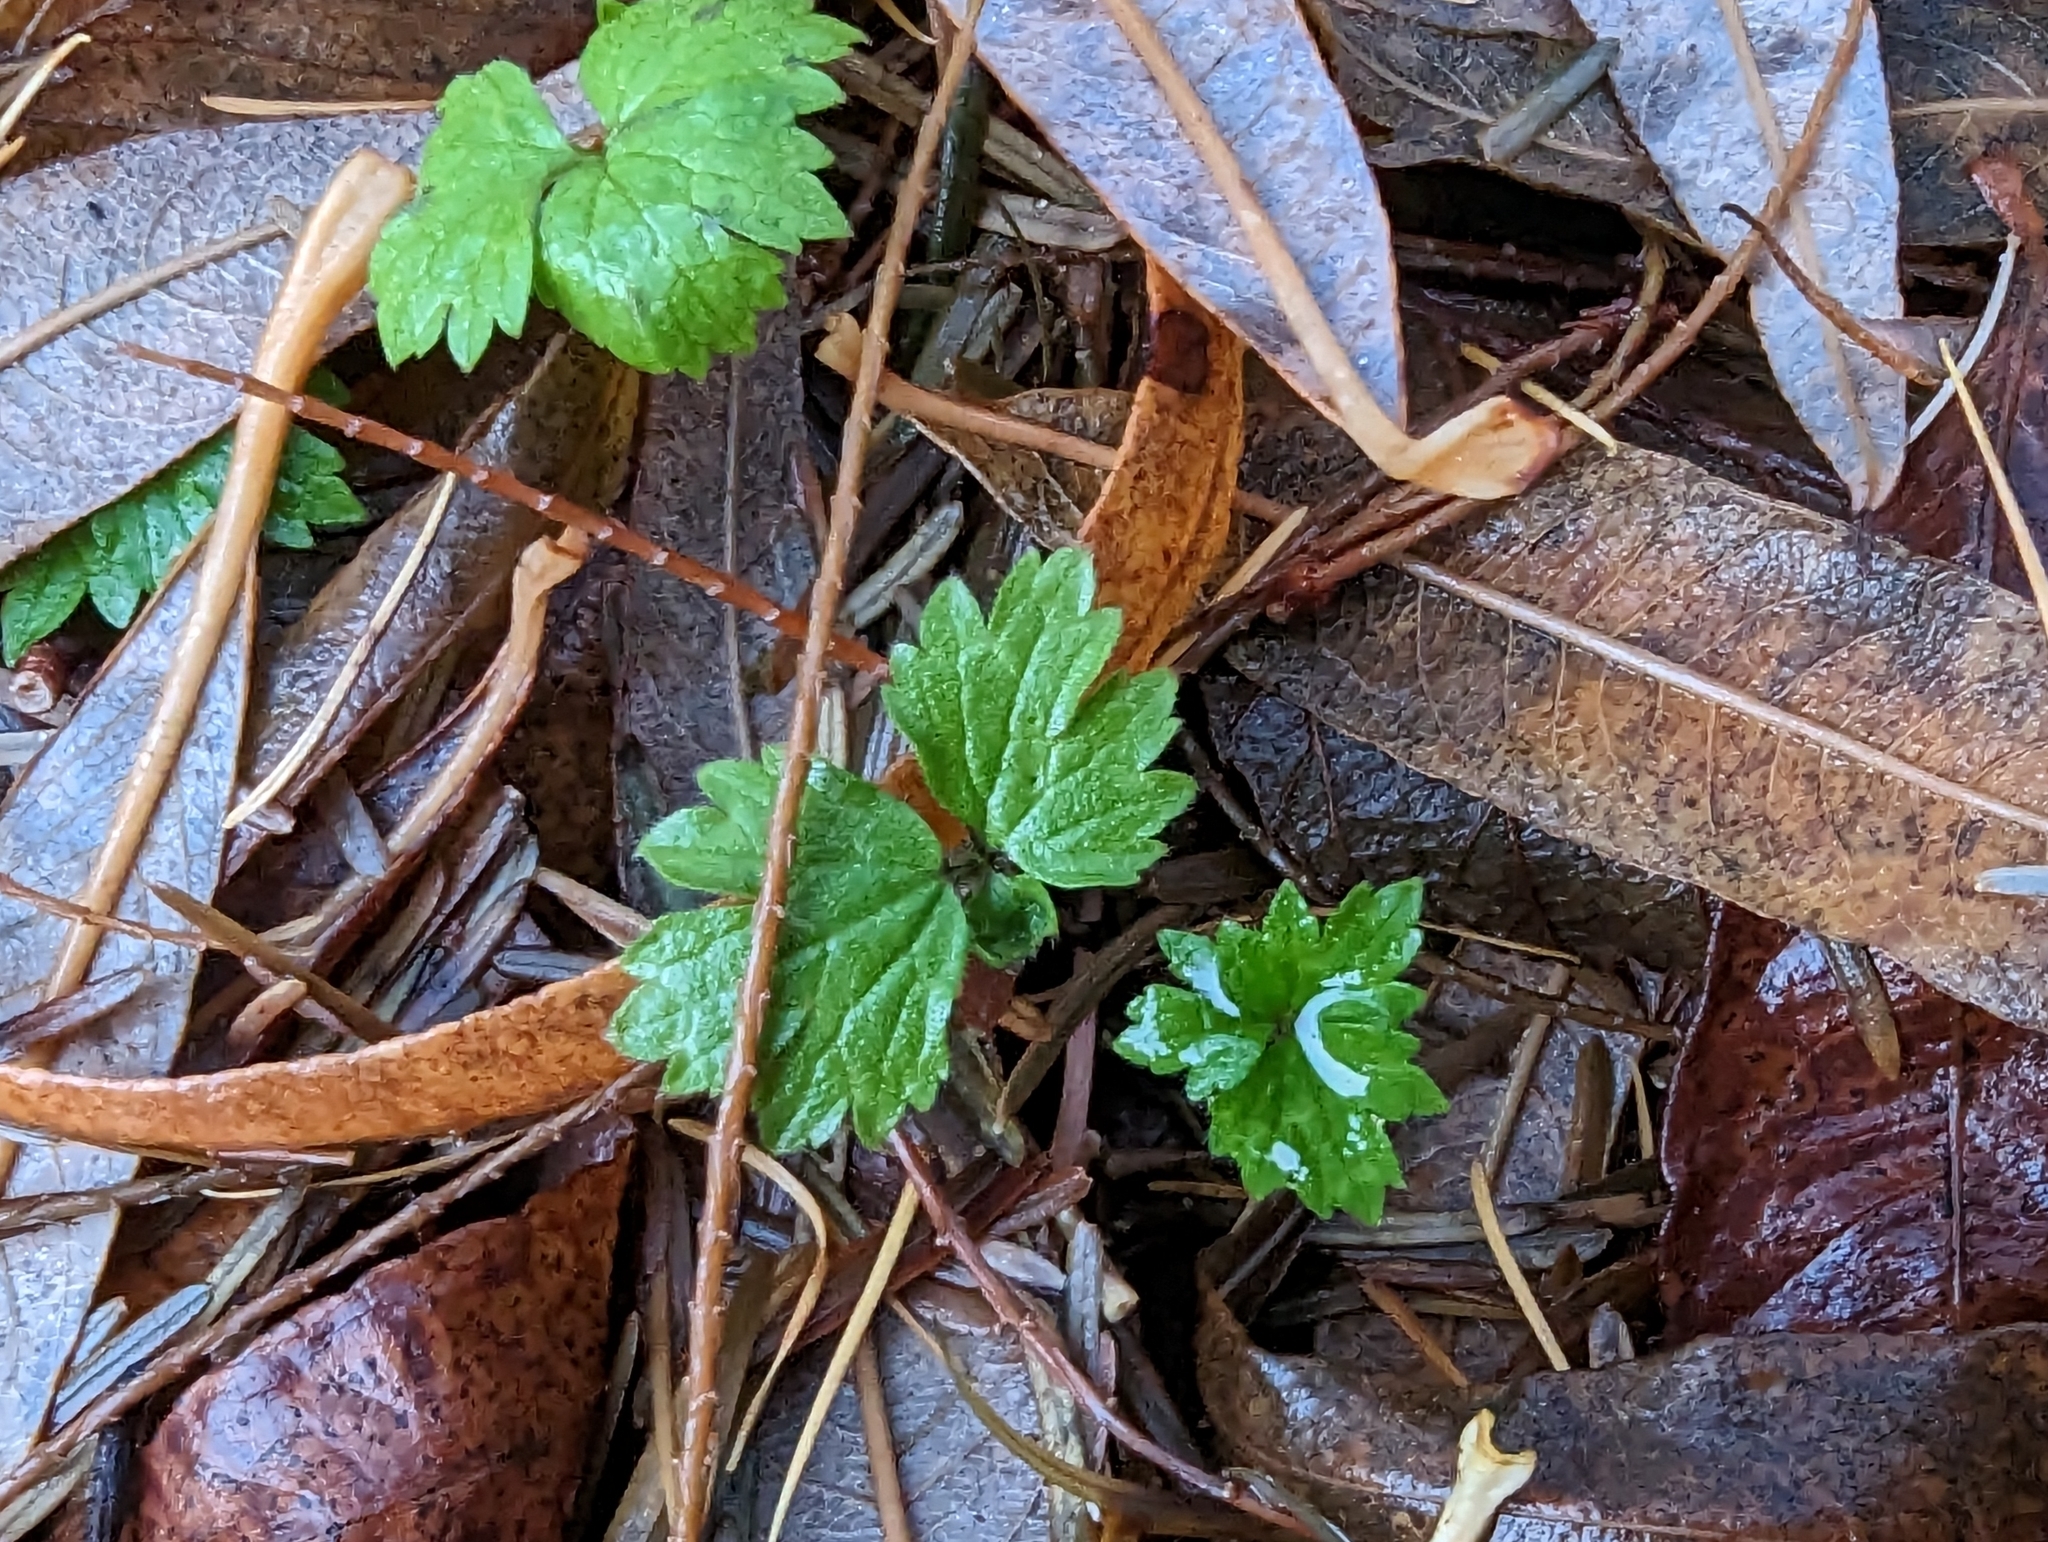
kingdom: Plantae
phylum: Tracheophyta
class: Magnoliopsida
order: Ranunculales
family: Ranunculaceae
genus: Ranunculus
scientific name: Ranunculus repens
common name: Creeping buttercup
